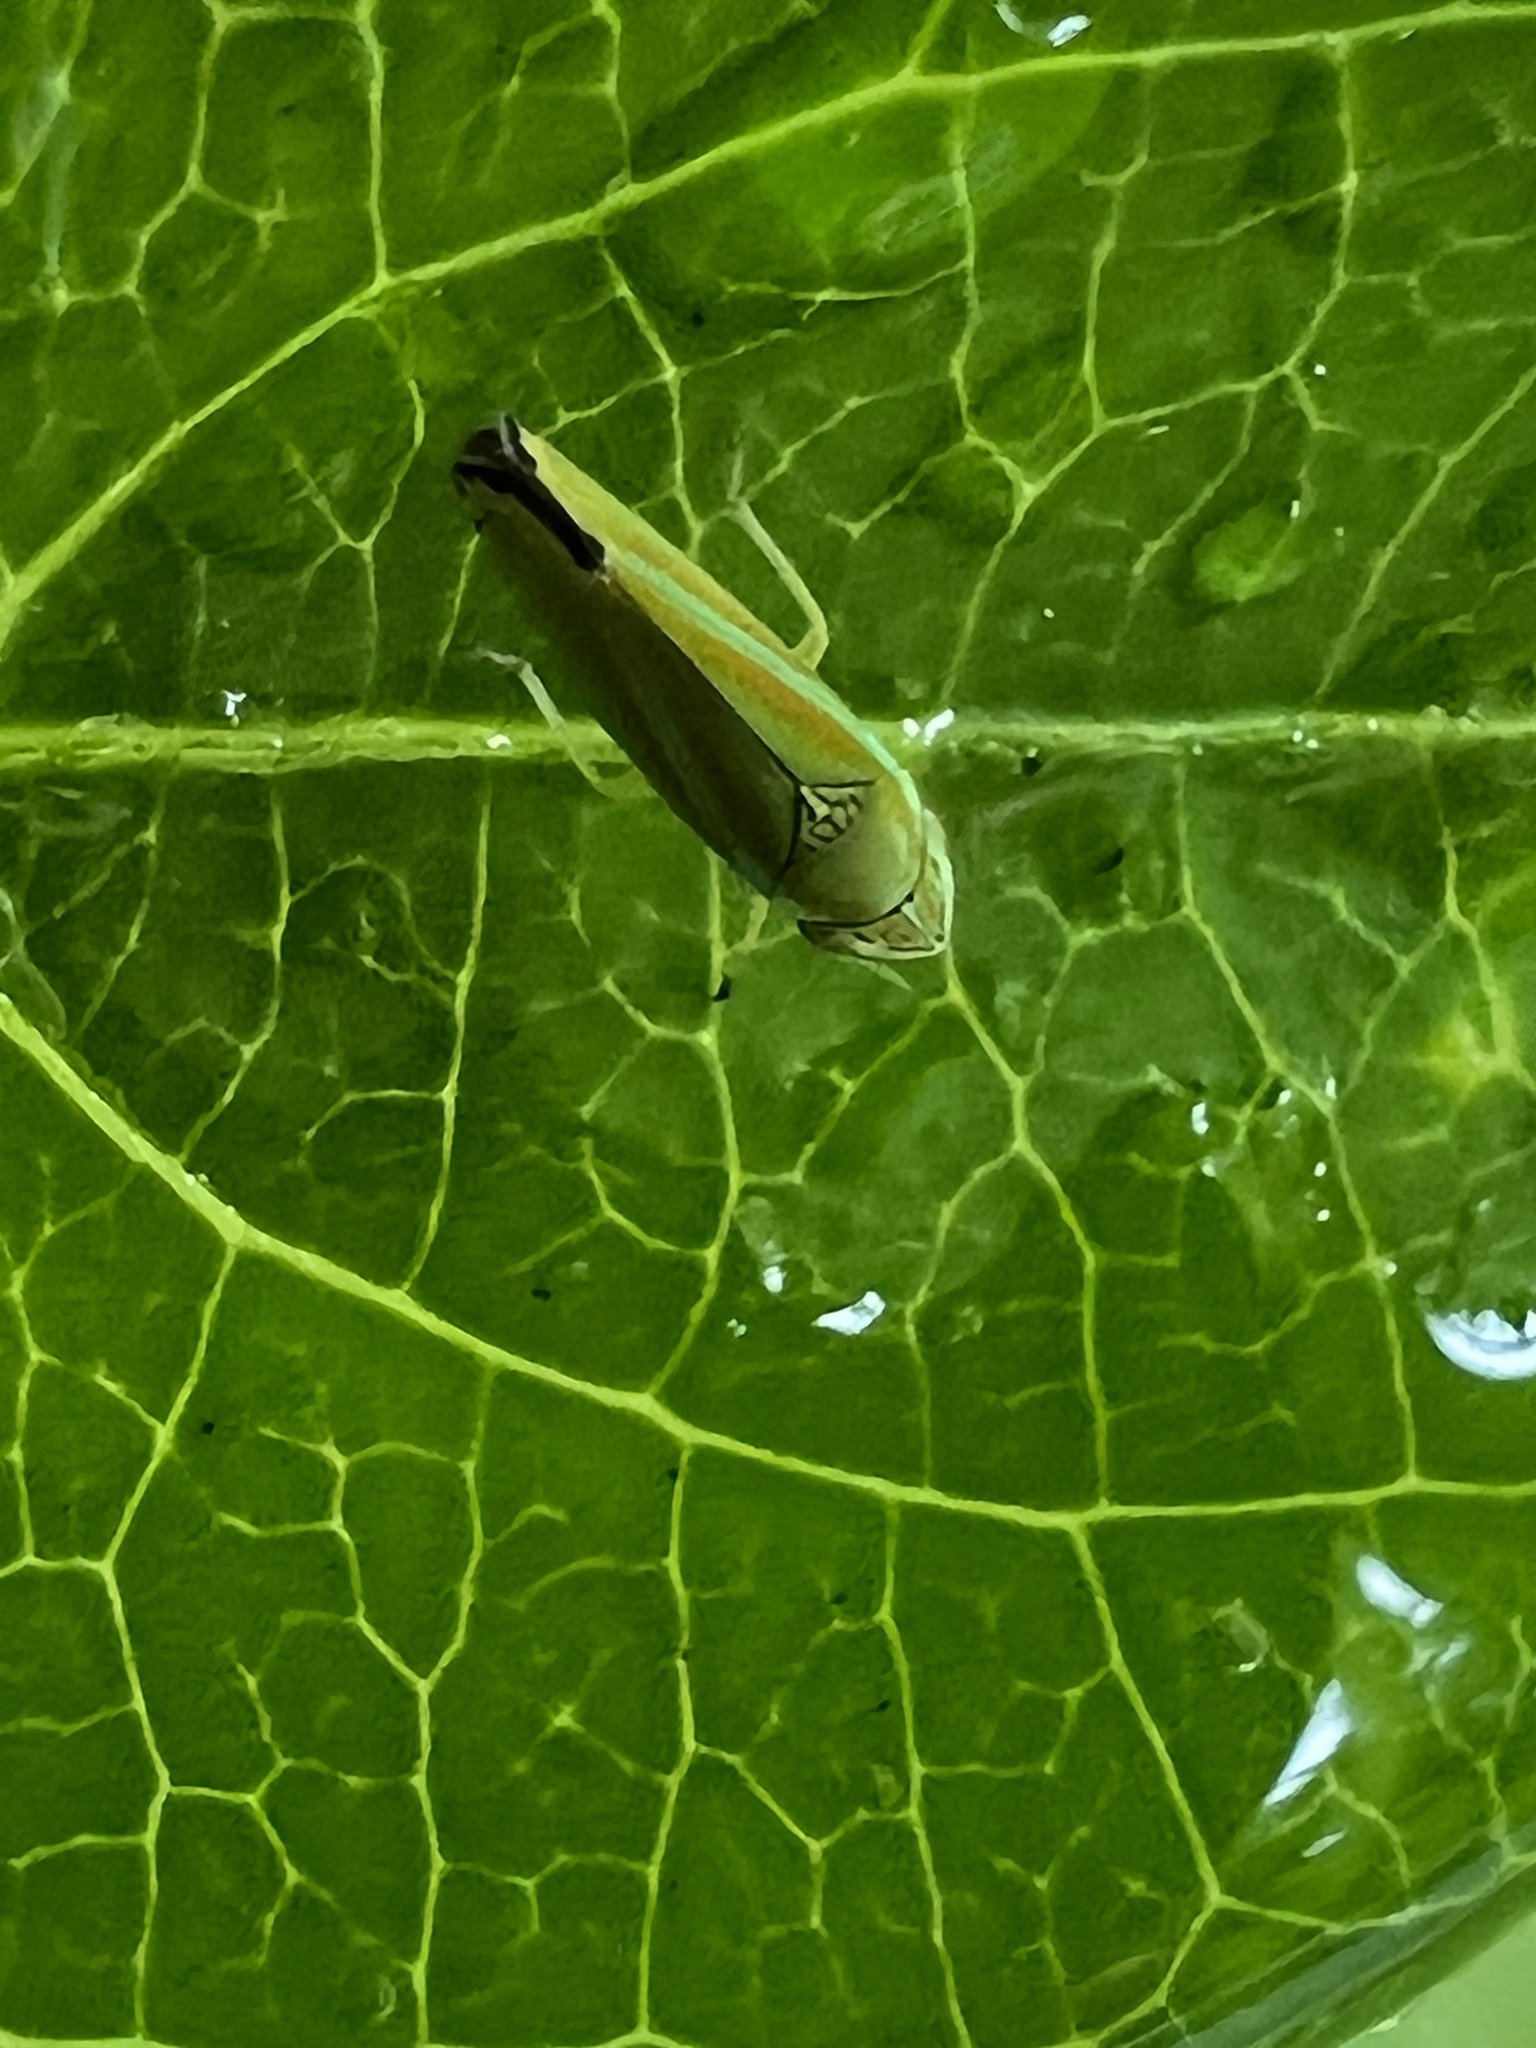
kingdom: Animalia
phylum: Arthropoda
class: Insecta
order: Hemiptera
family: Cicadellidae
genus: Graphocephala
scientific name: Graphocephala versuta
